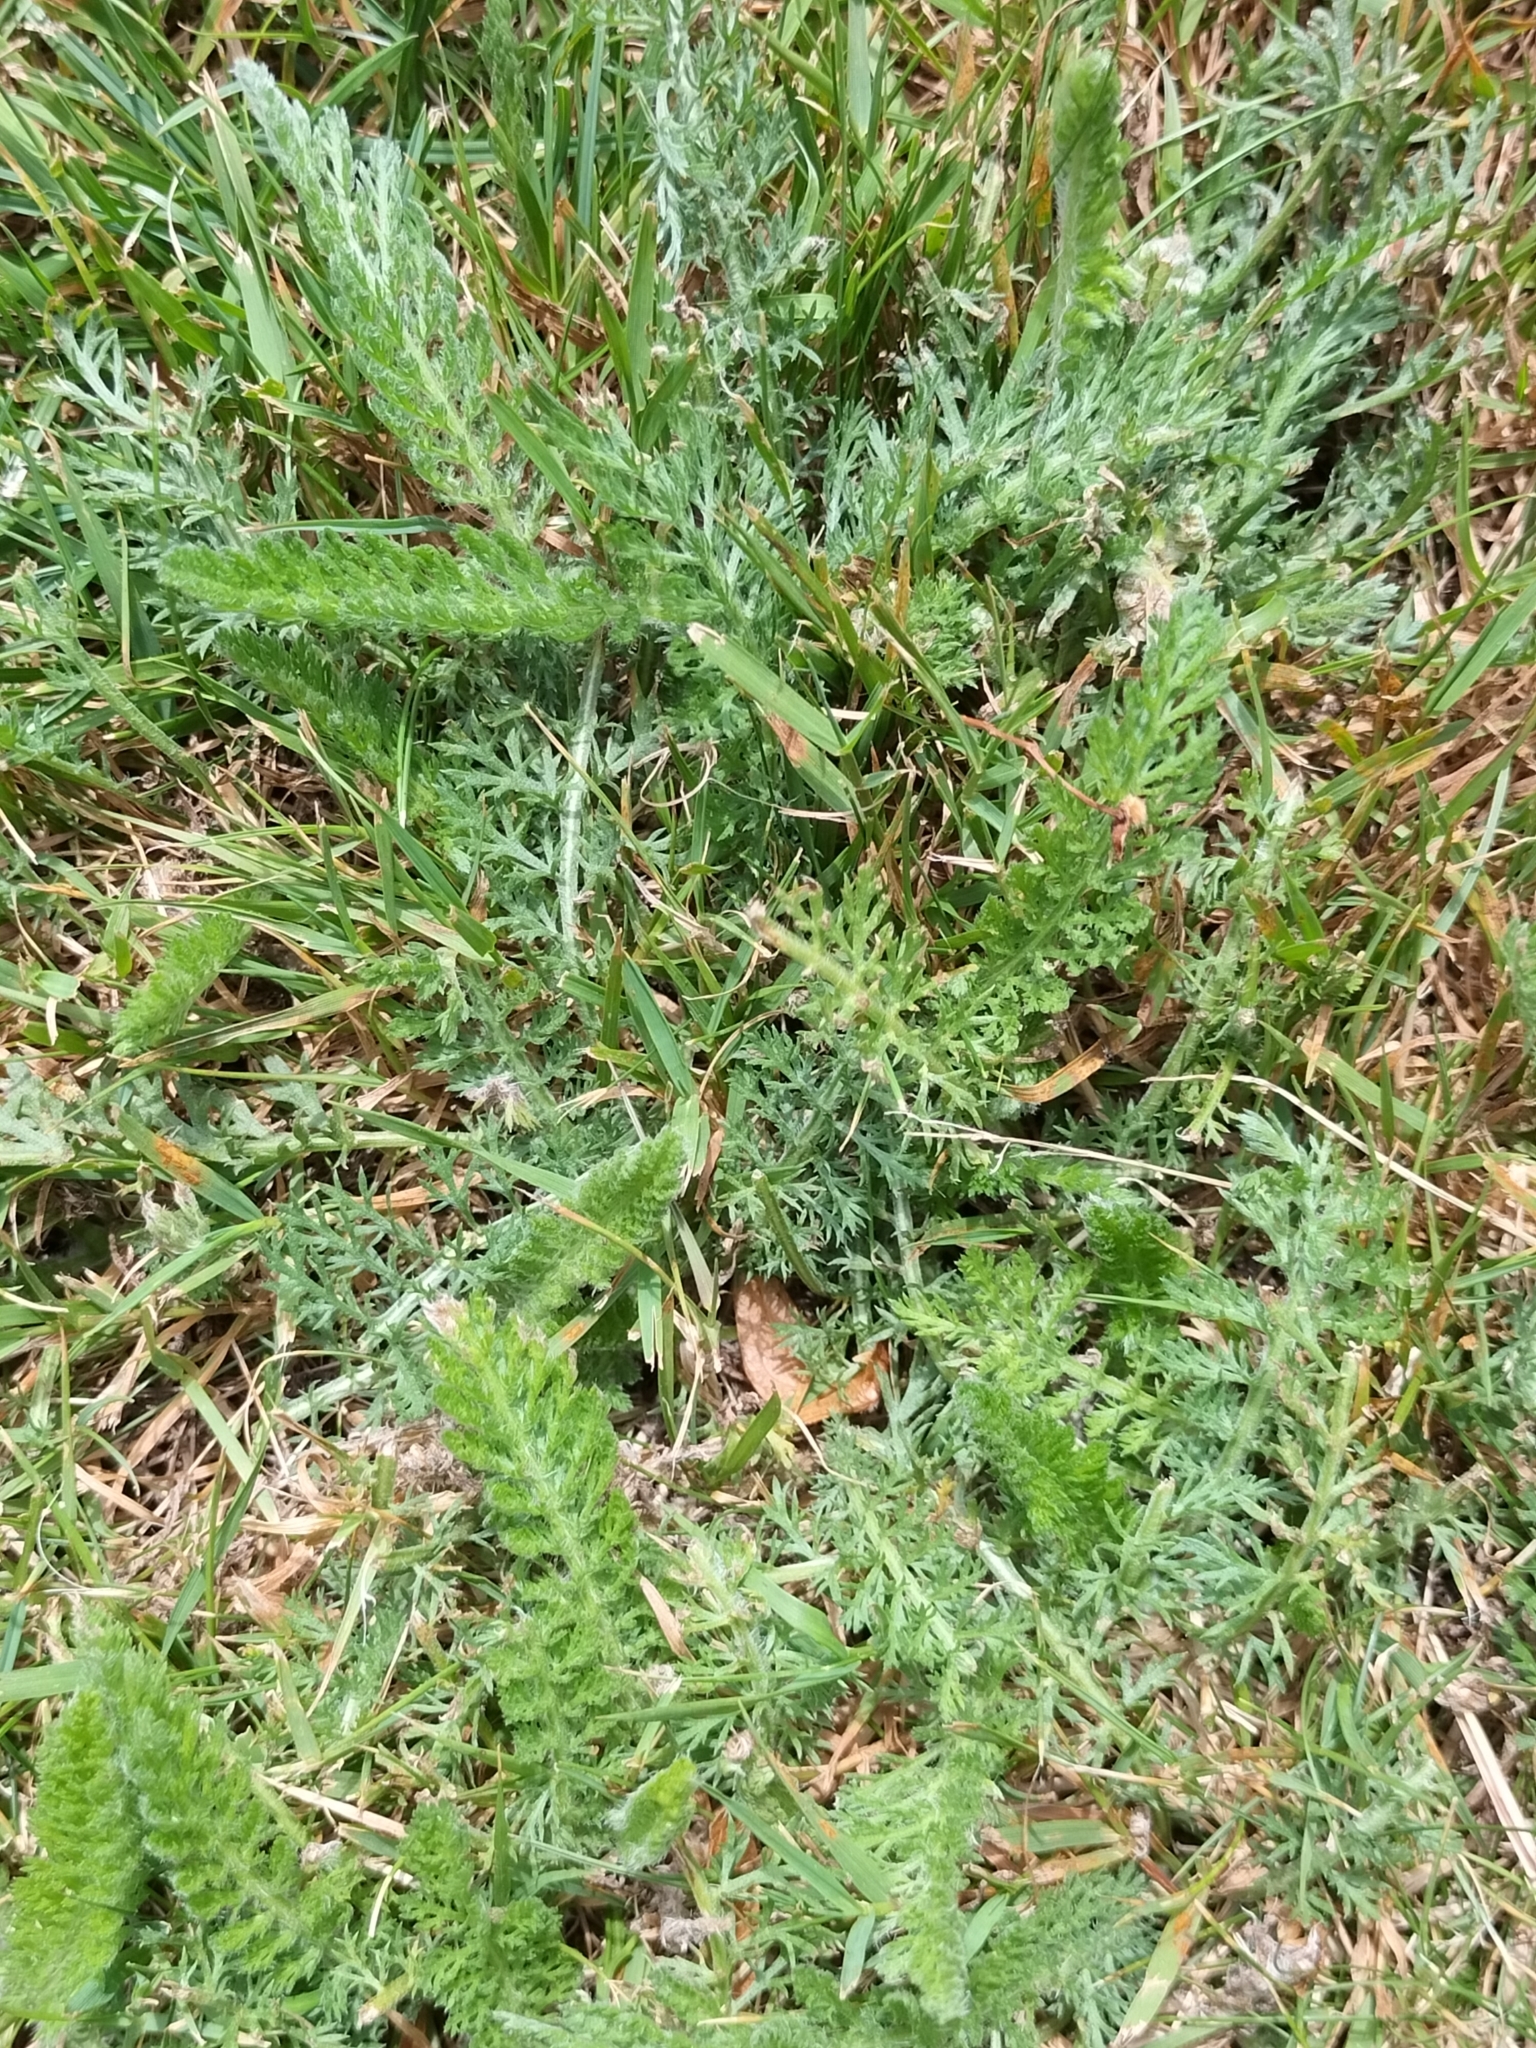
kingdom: Plantae
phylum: Tracheophyta
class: Magnoliopsida
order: Asterales
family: Asteraceae
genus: Achillea
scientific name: Achillea millefolium
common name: Yarrow
